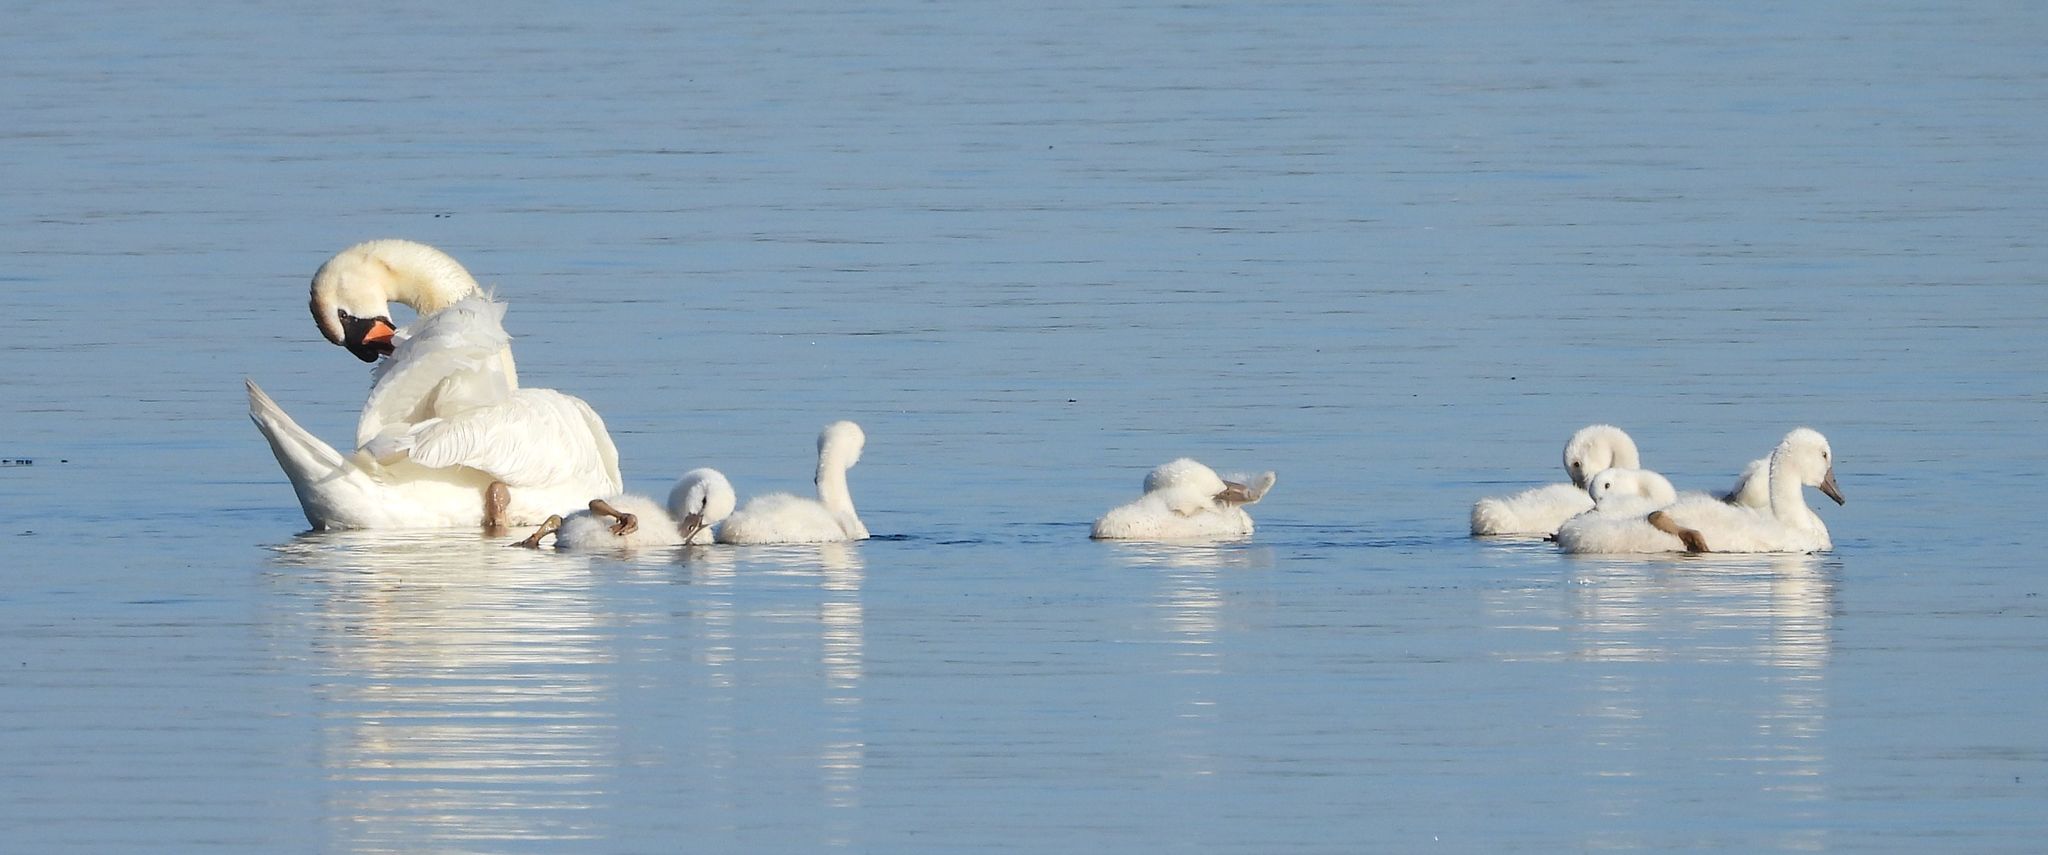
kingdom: Animalia
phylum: Chordata
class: Aves
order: Anseriformes
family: Anatidae
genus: Cygnus
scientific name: Cygnus olor
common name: Mute swan
